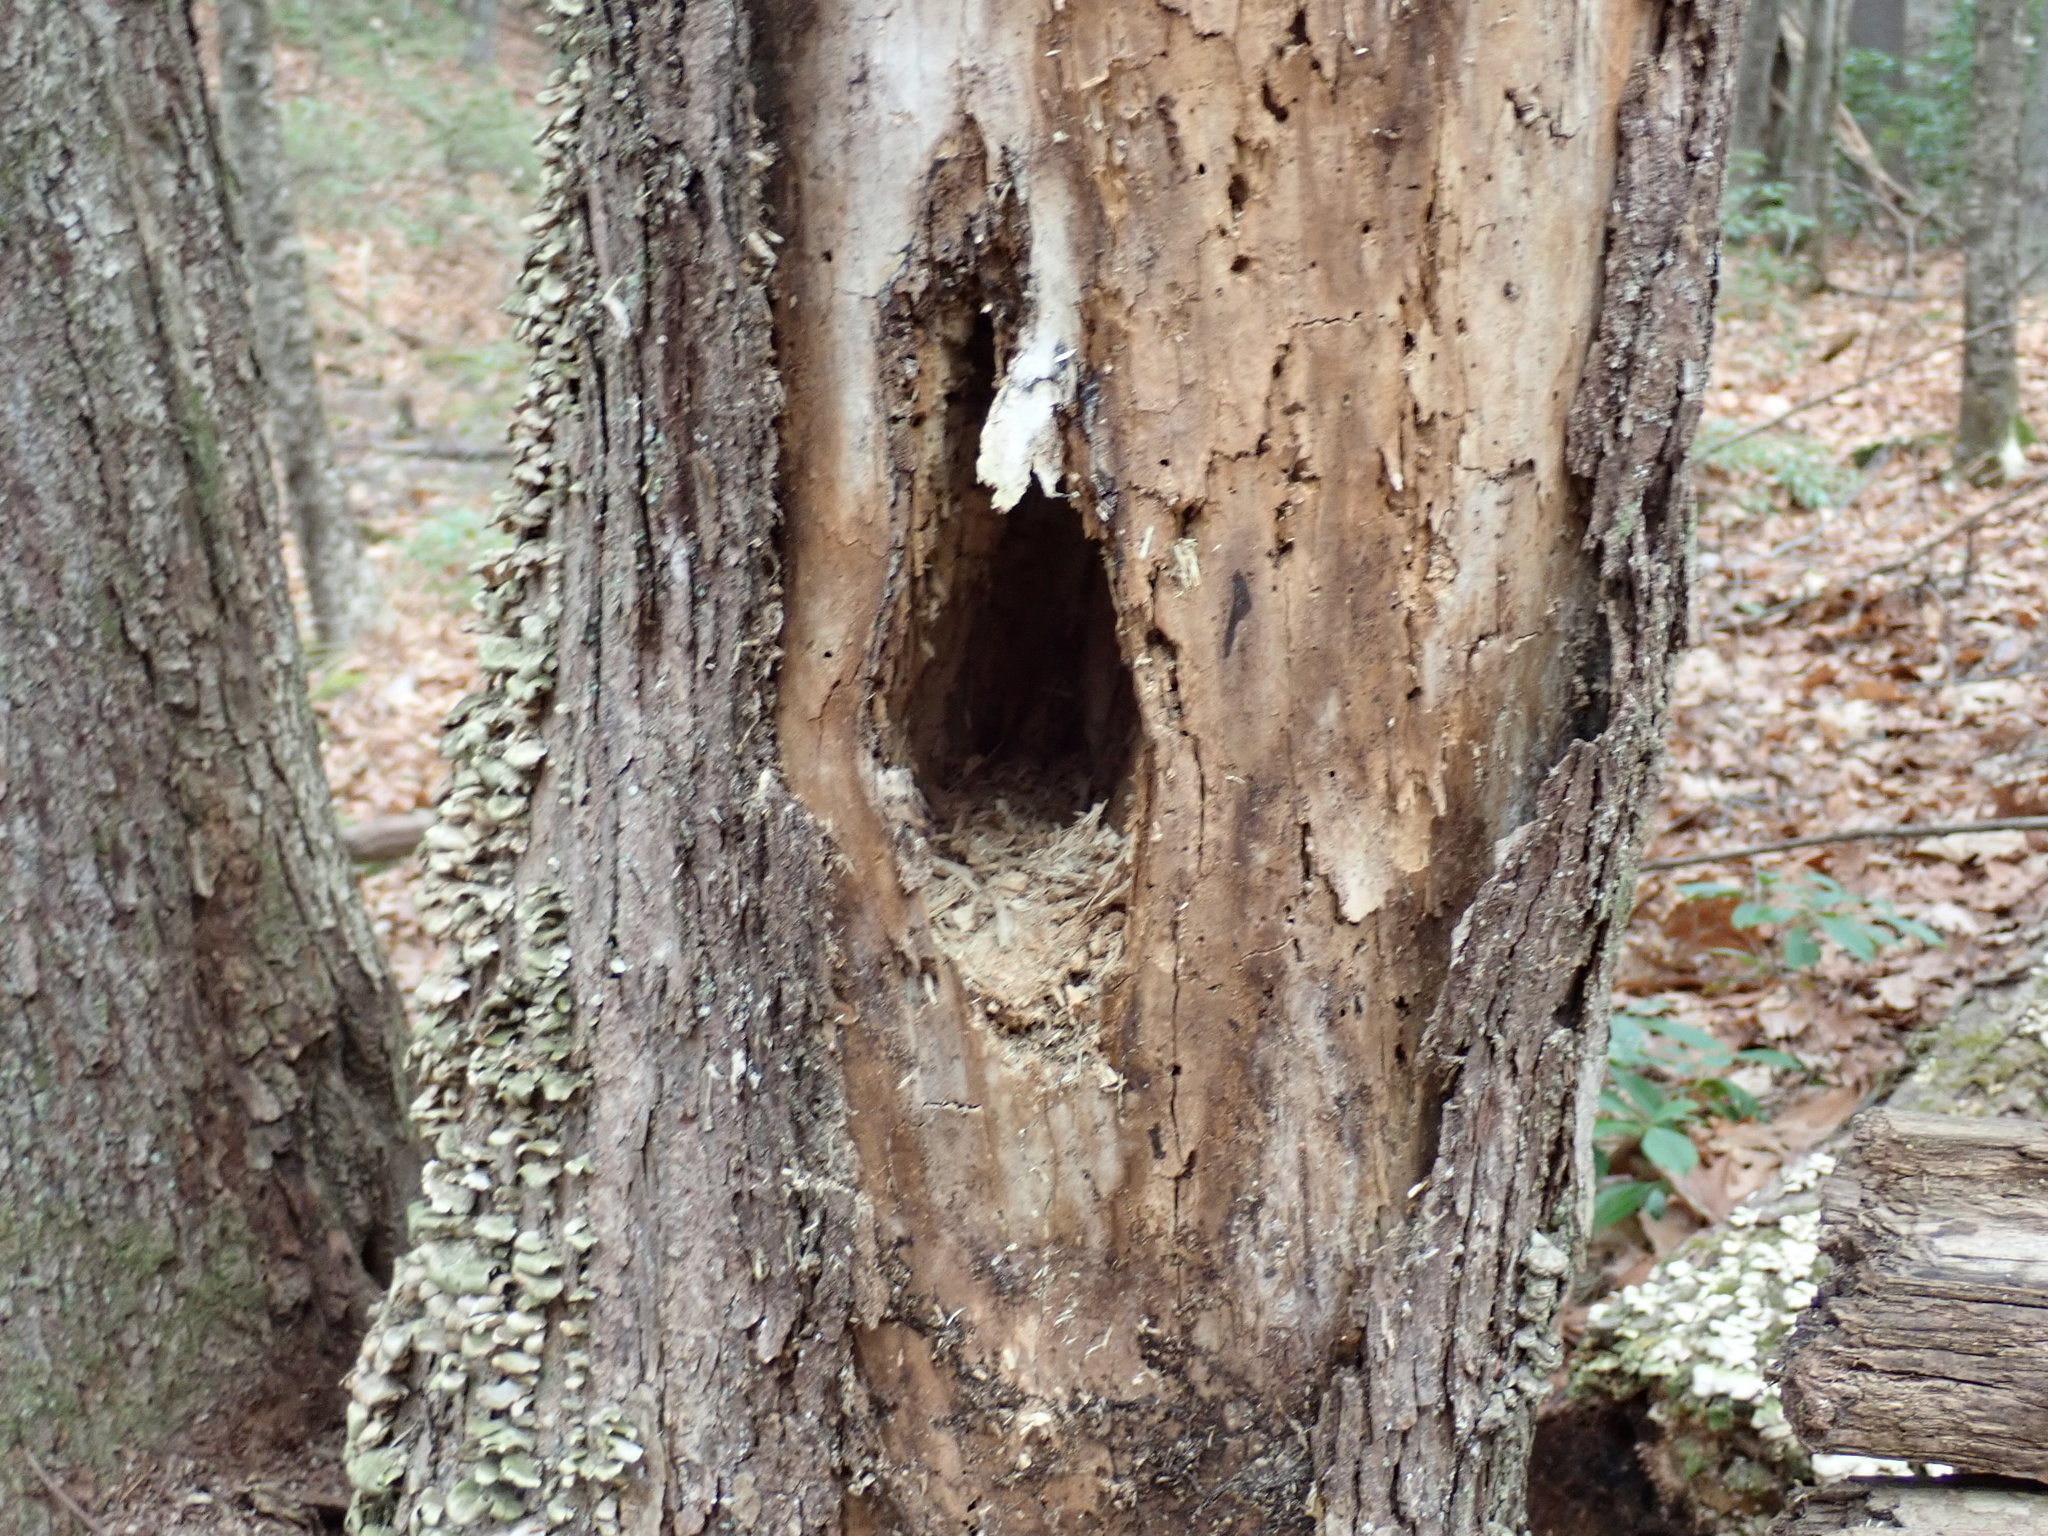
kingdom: Animalia
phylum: Chordata
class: Aves
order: Piciformes
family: Picidae
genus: Dryocopus
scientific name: Dryocopus pileatus
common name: Pileated woodpecker
